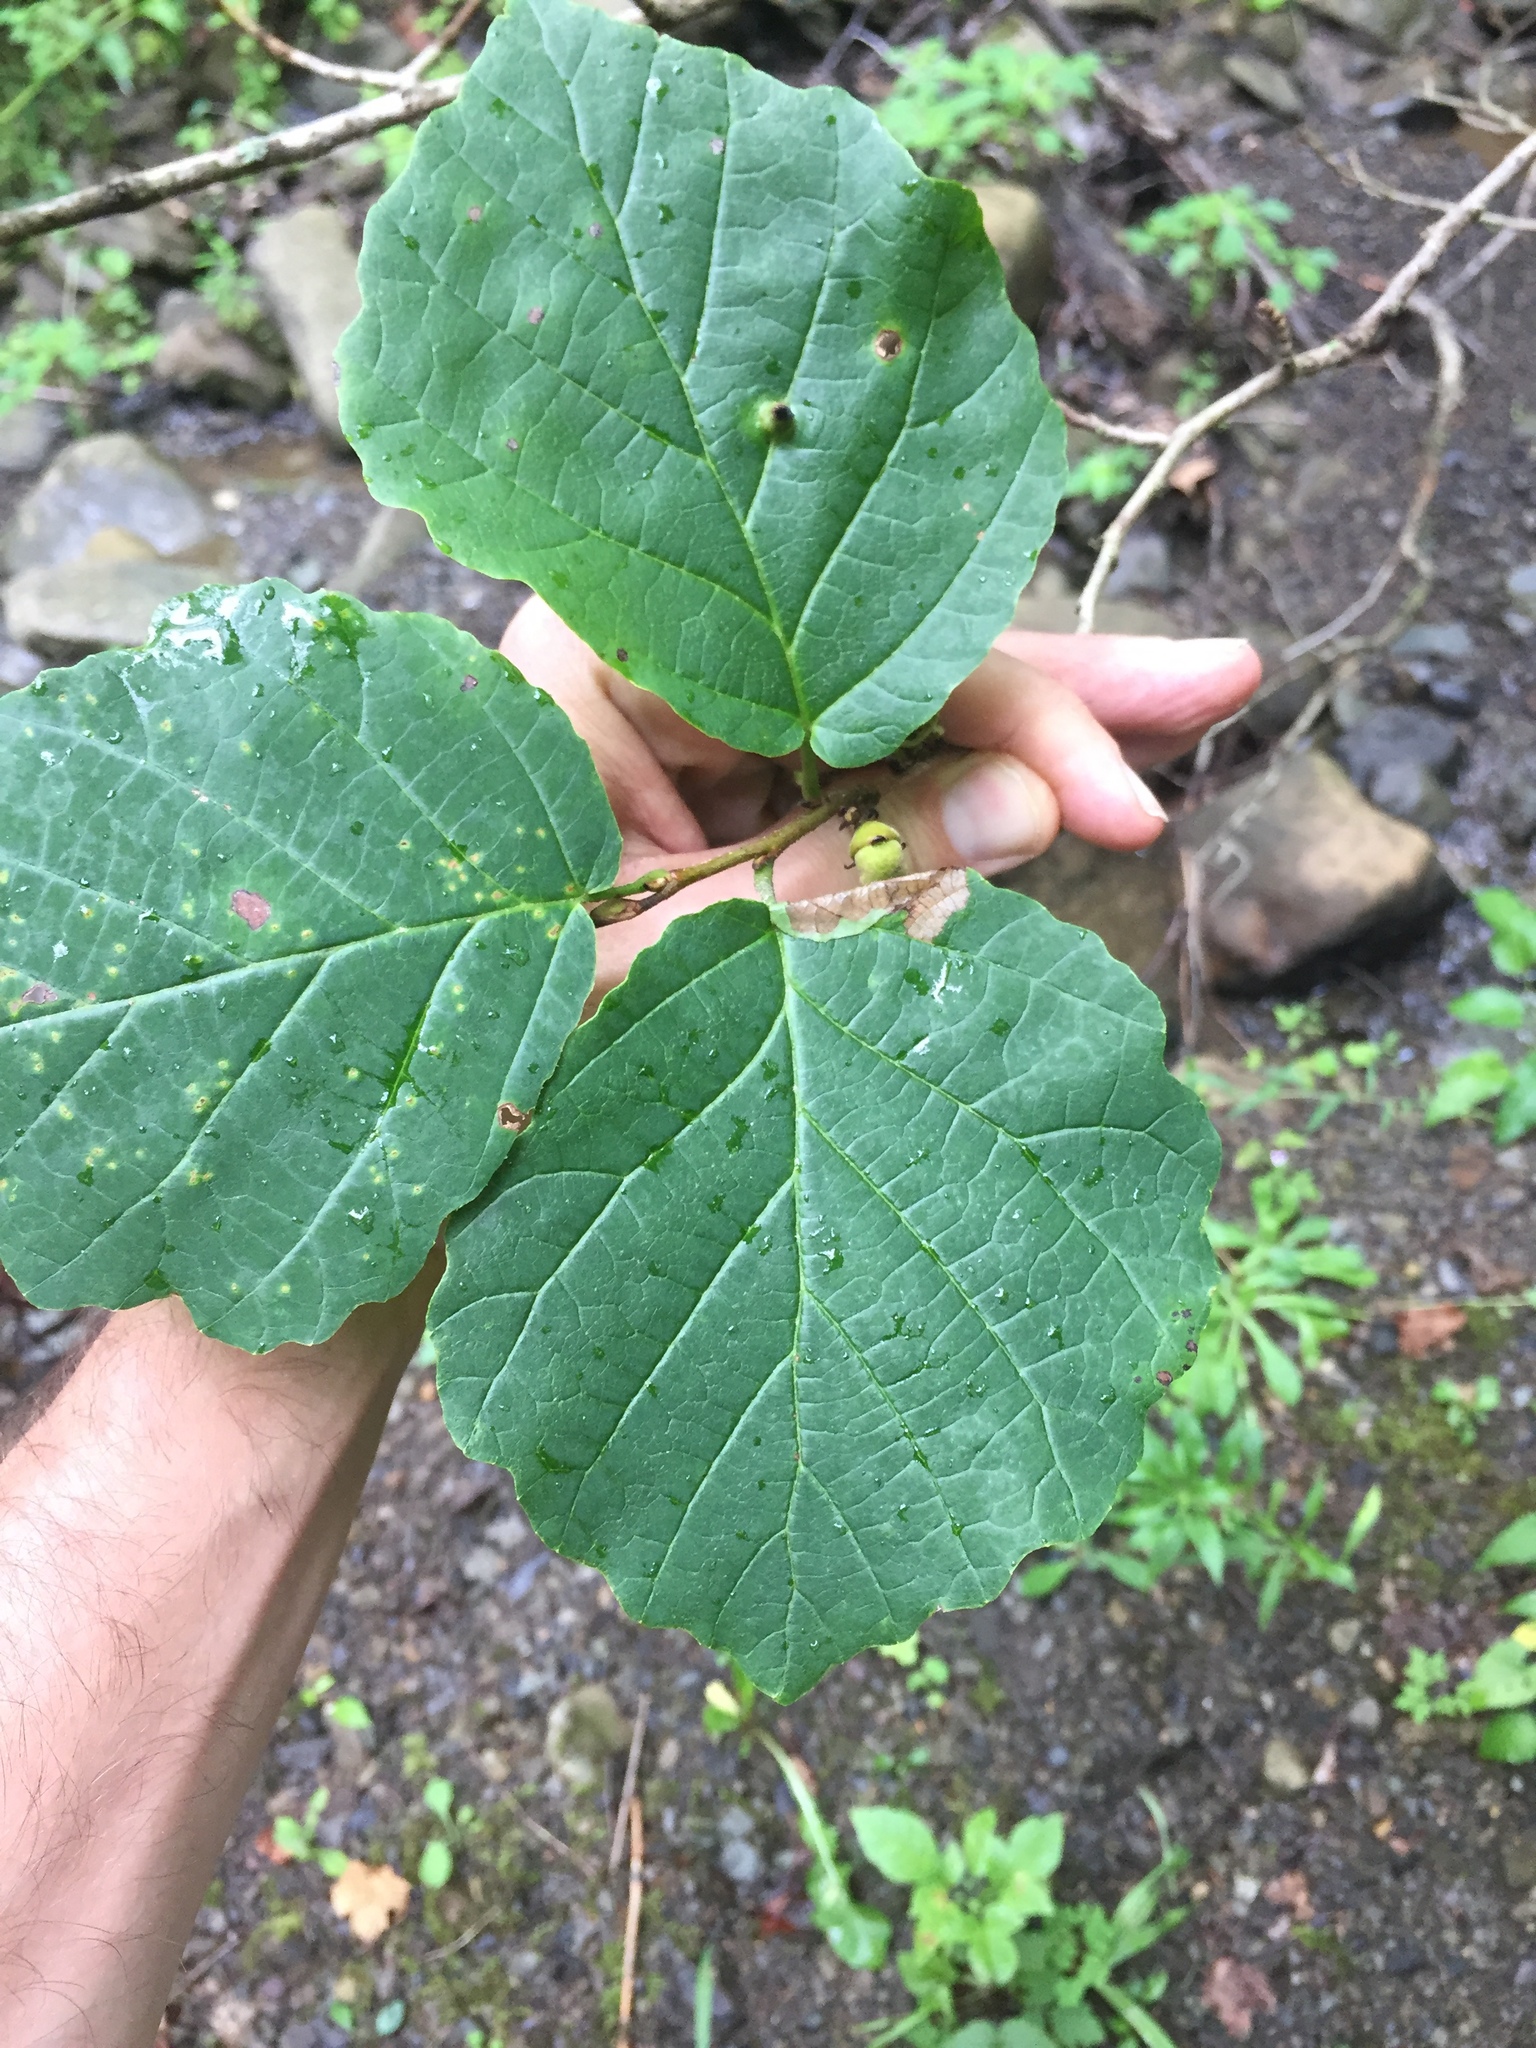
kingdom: Plantae
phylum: Tracheophyta
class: Magnoliopsida
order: Saxifragales
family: Hamamelidaceae
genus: Hamamelis
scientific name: Hamamelis virginiana
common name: Witch-hazel
